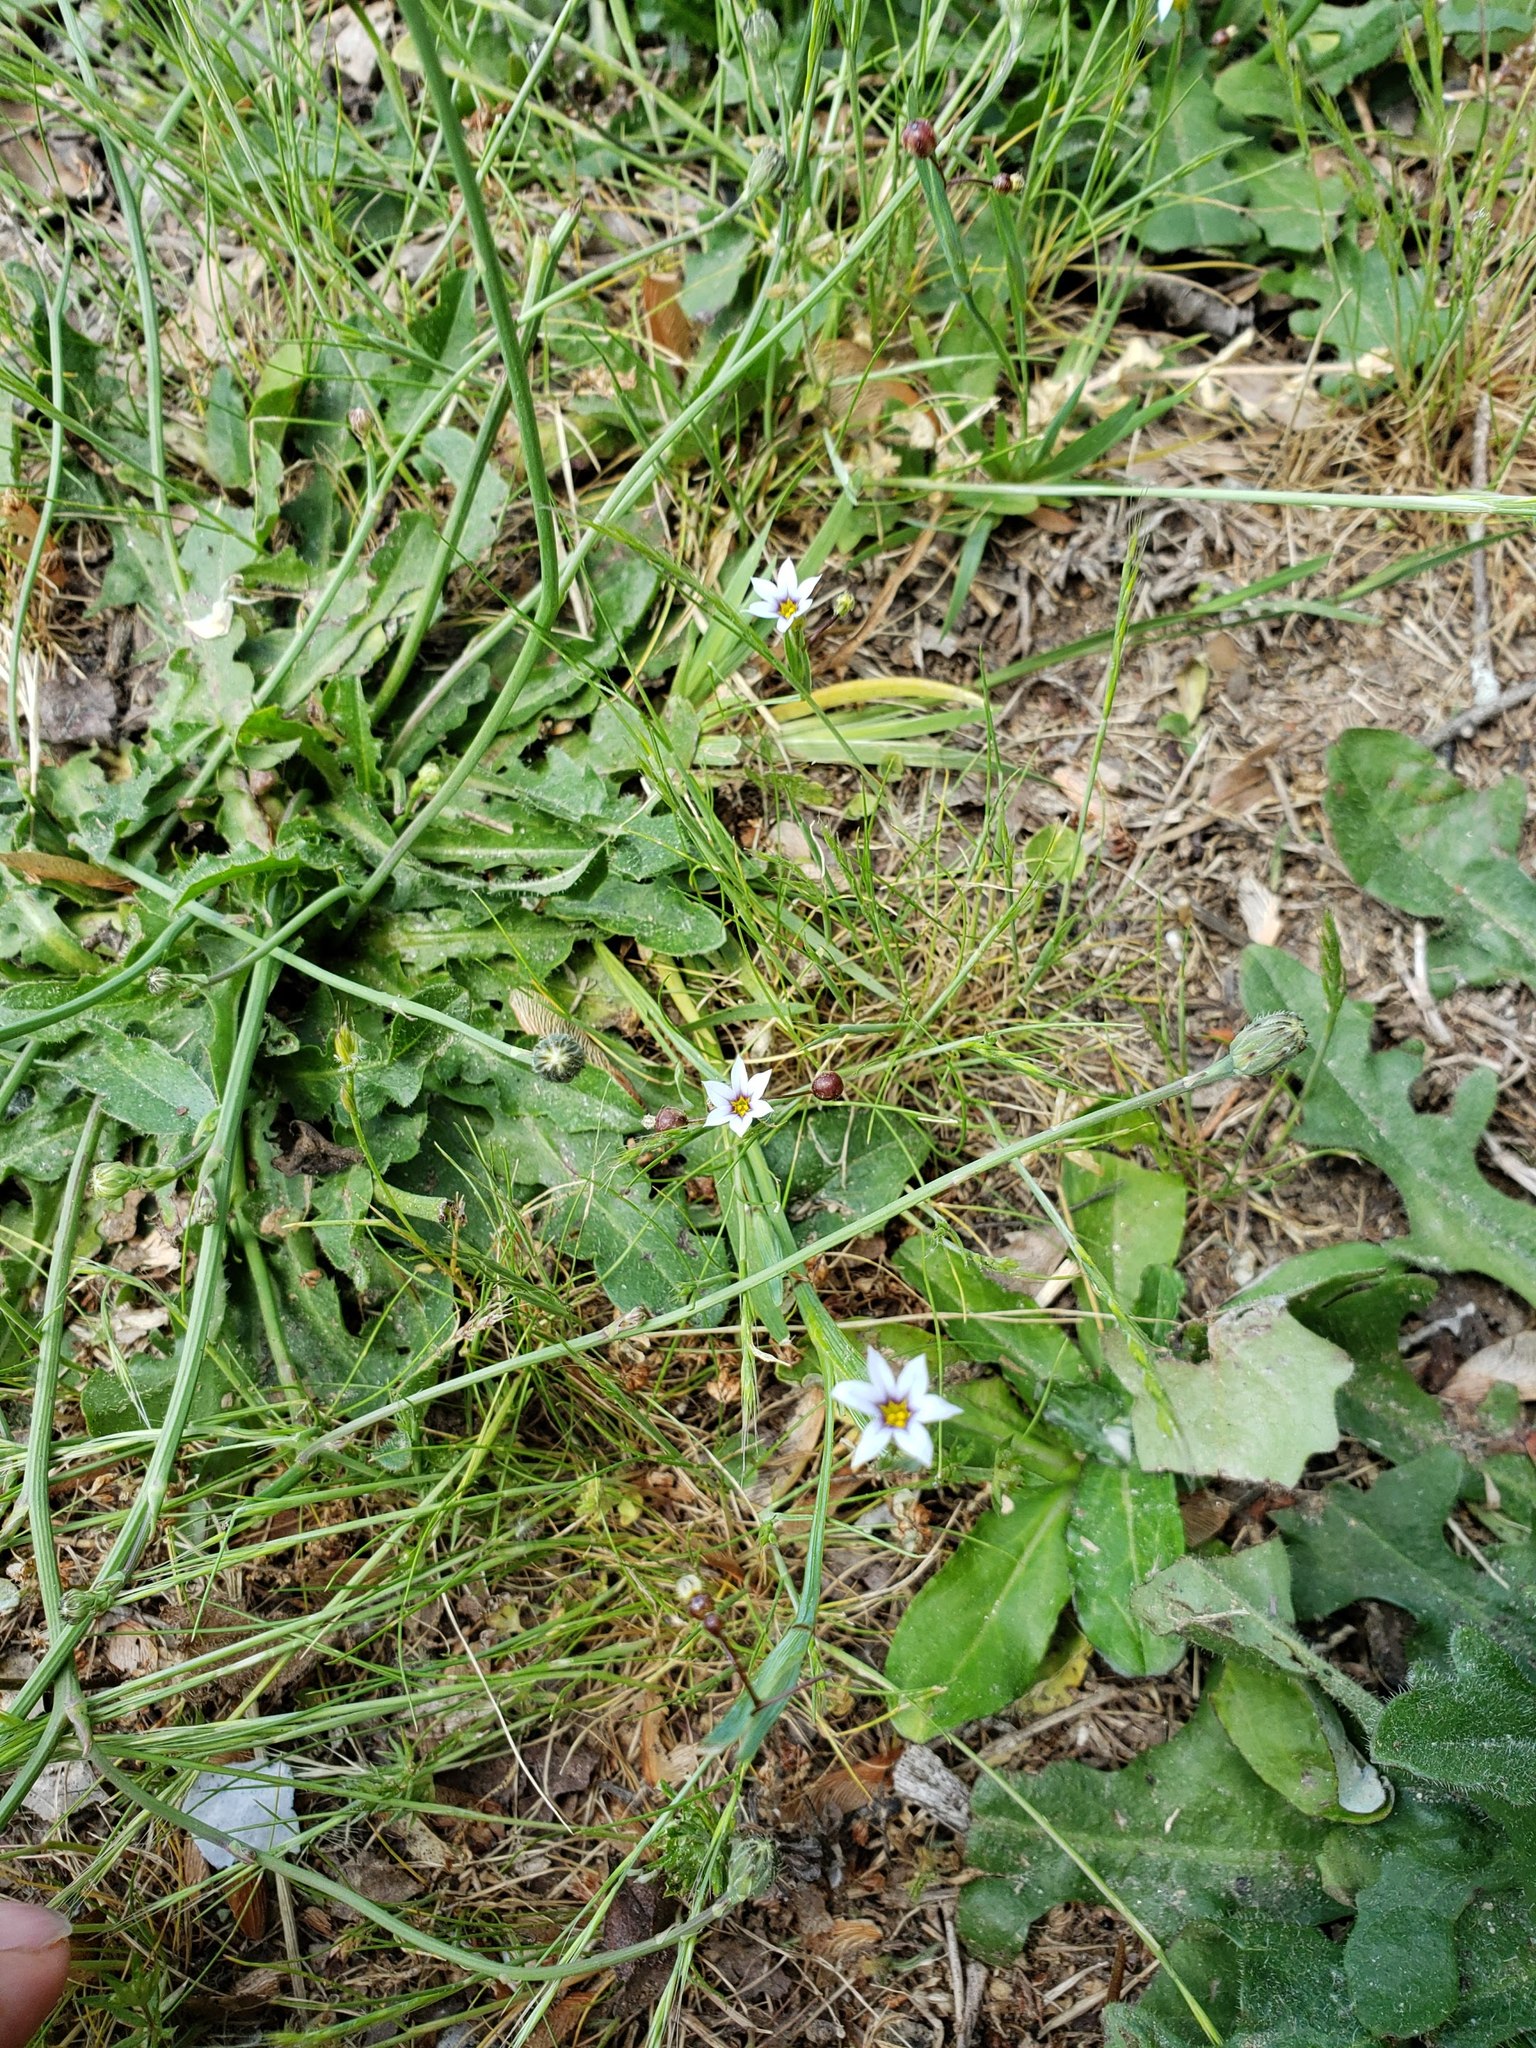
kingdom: Plantae
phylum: Tracheophyta
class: Liliopsida
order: Asparagales
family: Iridaceae
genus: Sisyrinchium
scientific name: Sisyrinchium micranthum
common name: Bermuda pigroot
